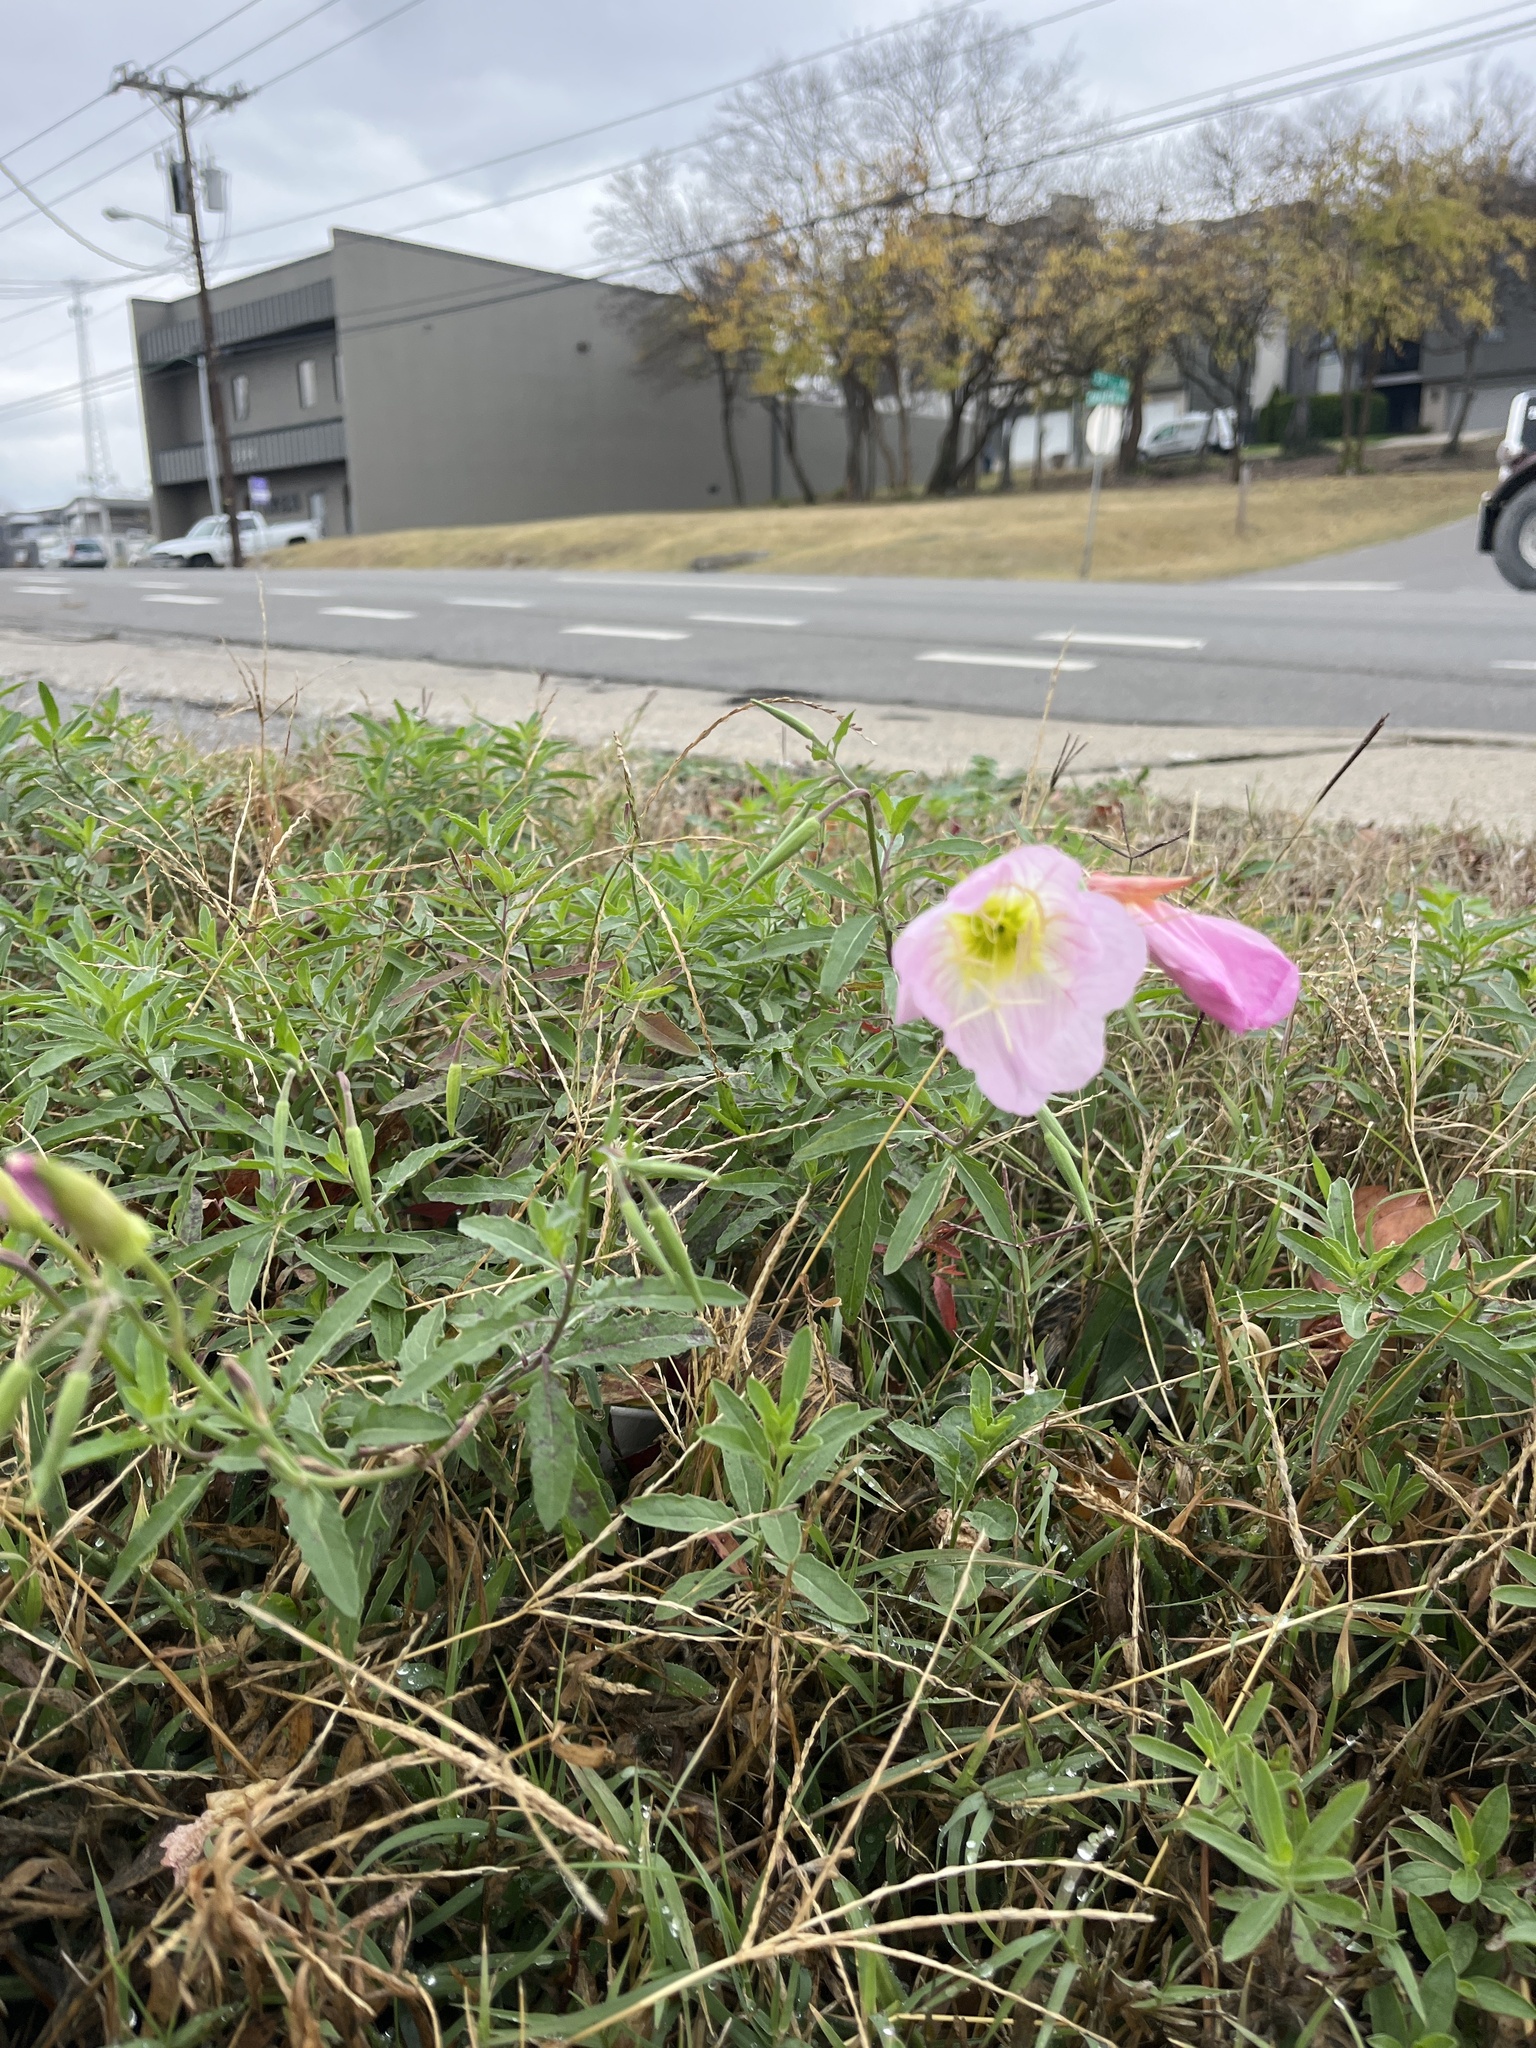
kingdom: Plantae
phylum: Tracheophyta
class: Magnoliopsida
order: Myrtales
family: Onagraceae
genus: Oenothera
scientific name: Oenothera speciosa
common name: White evening-primrose
